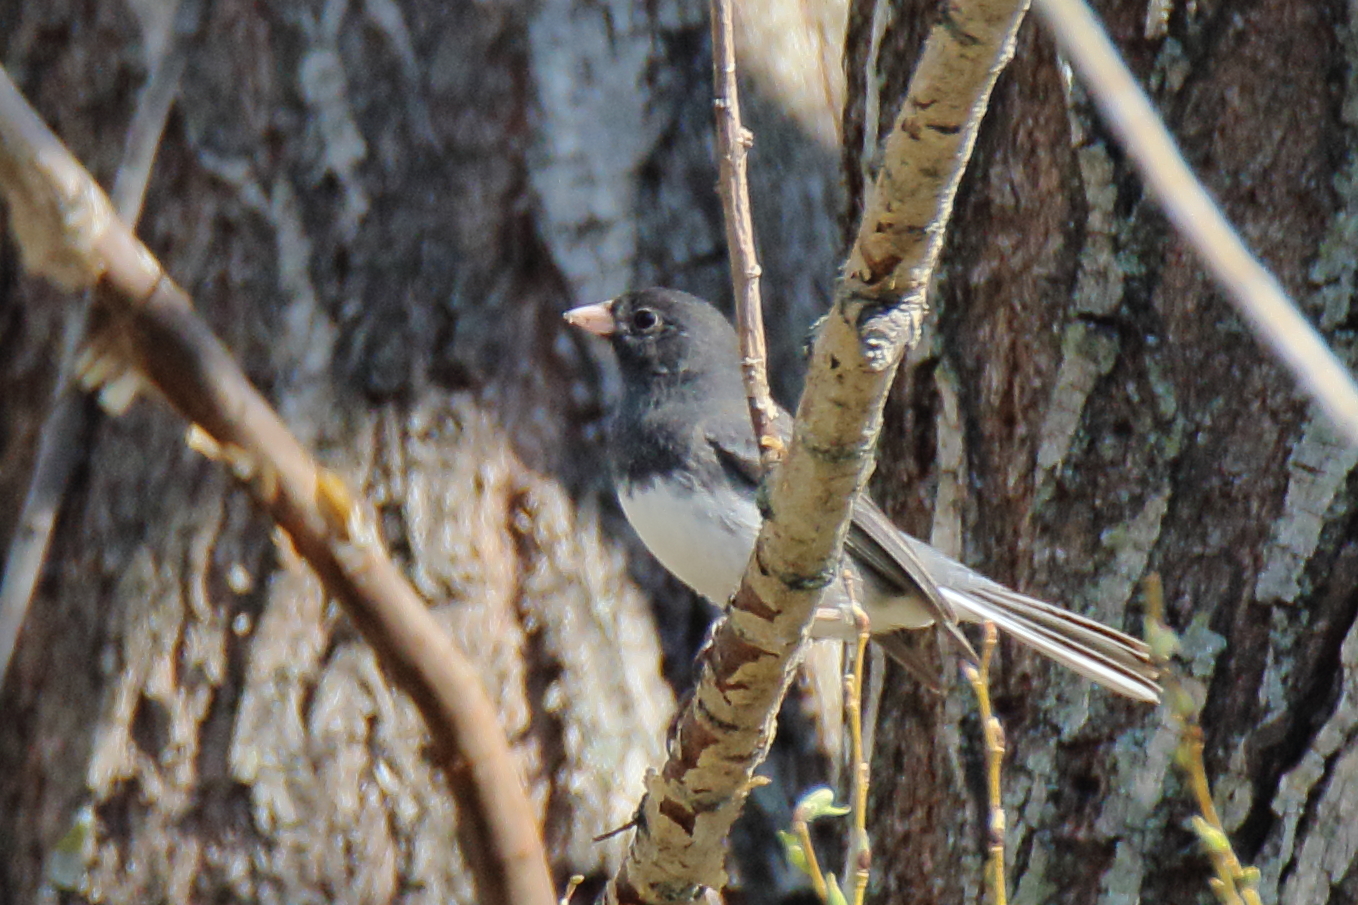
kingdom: Animalia
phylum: Chordata
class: Aves
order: Passeriformes
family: Passerellidae
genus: Junco
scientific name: Junco hyemalis
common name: Dark-eyed junco
